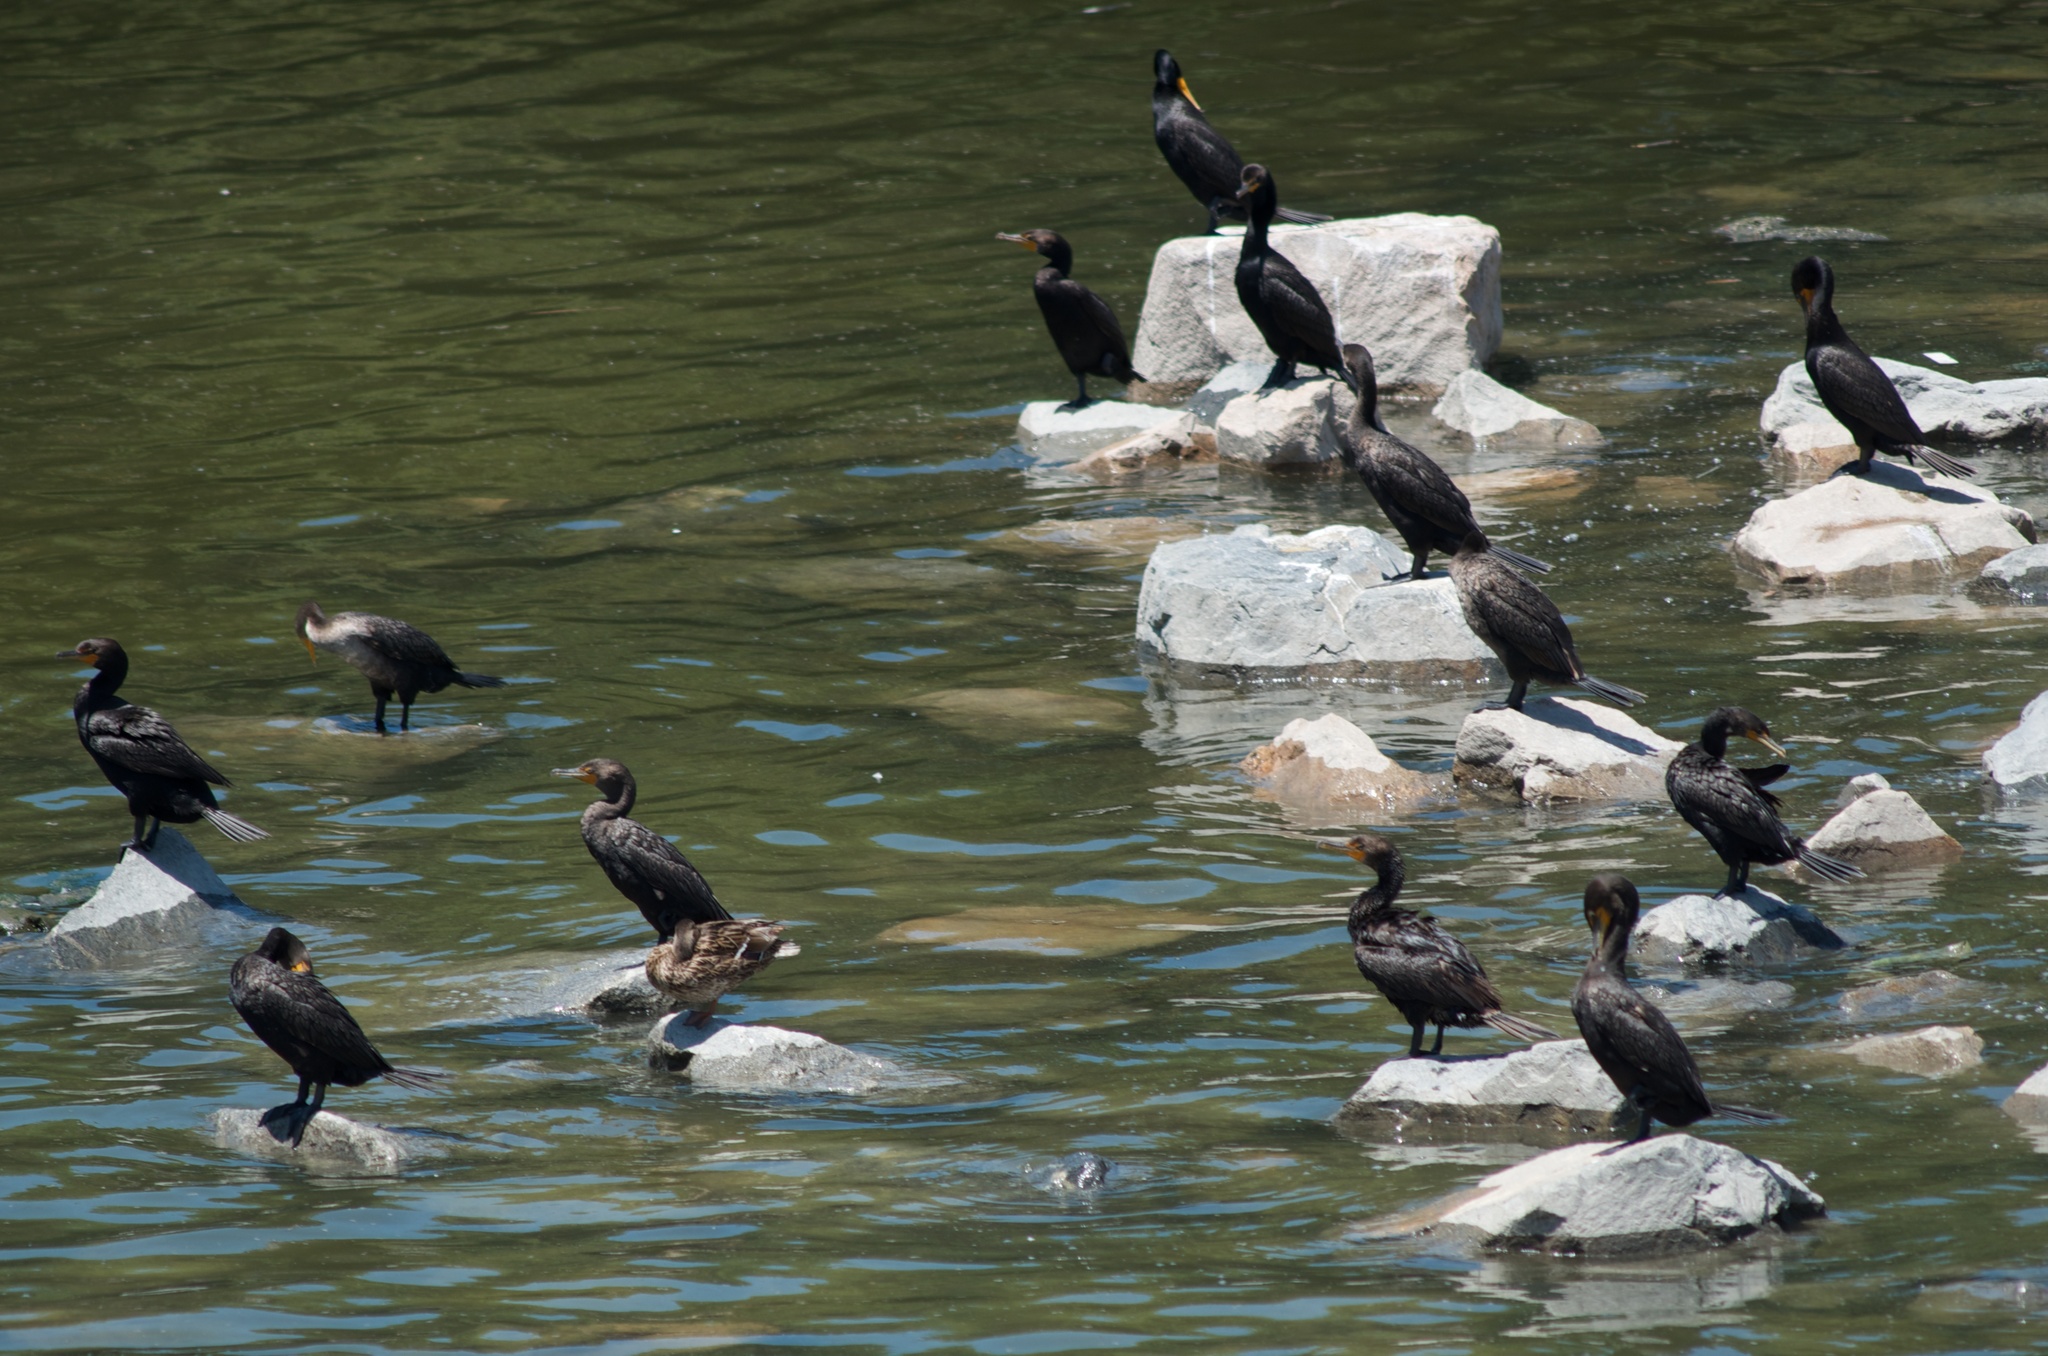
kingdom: Animalia
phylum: Chordata
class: Aves
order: Suliformes
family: Phalacrocoracidae
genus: Phalacrocorax
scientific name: Phalacrocorax auritus
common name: Double-crested cormorant
